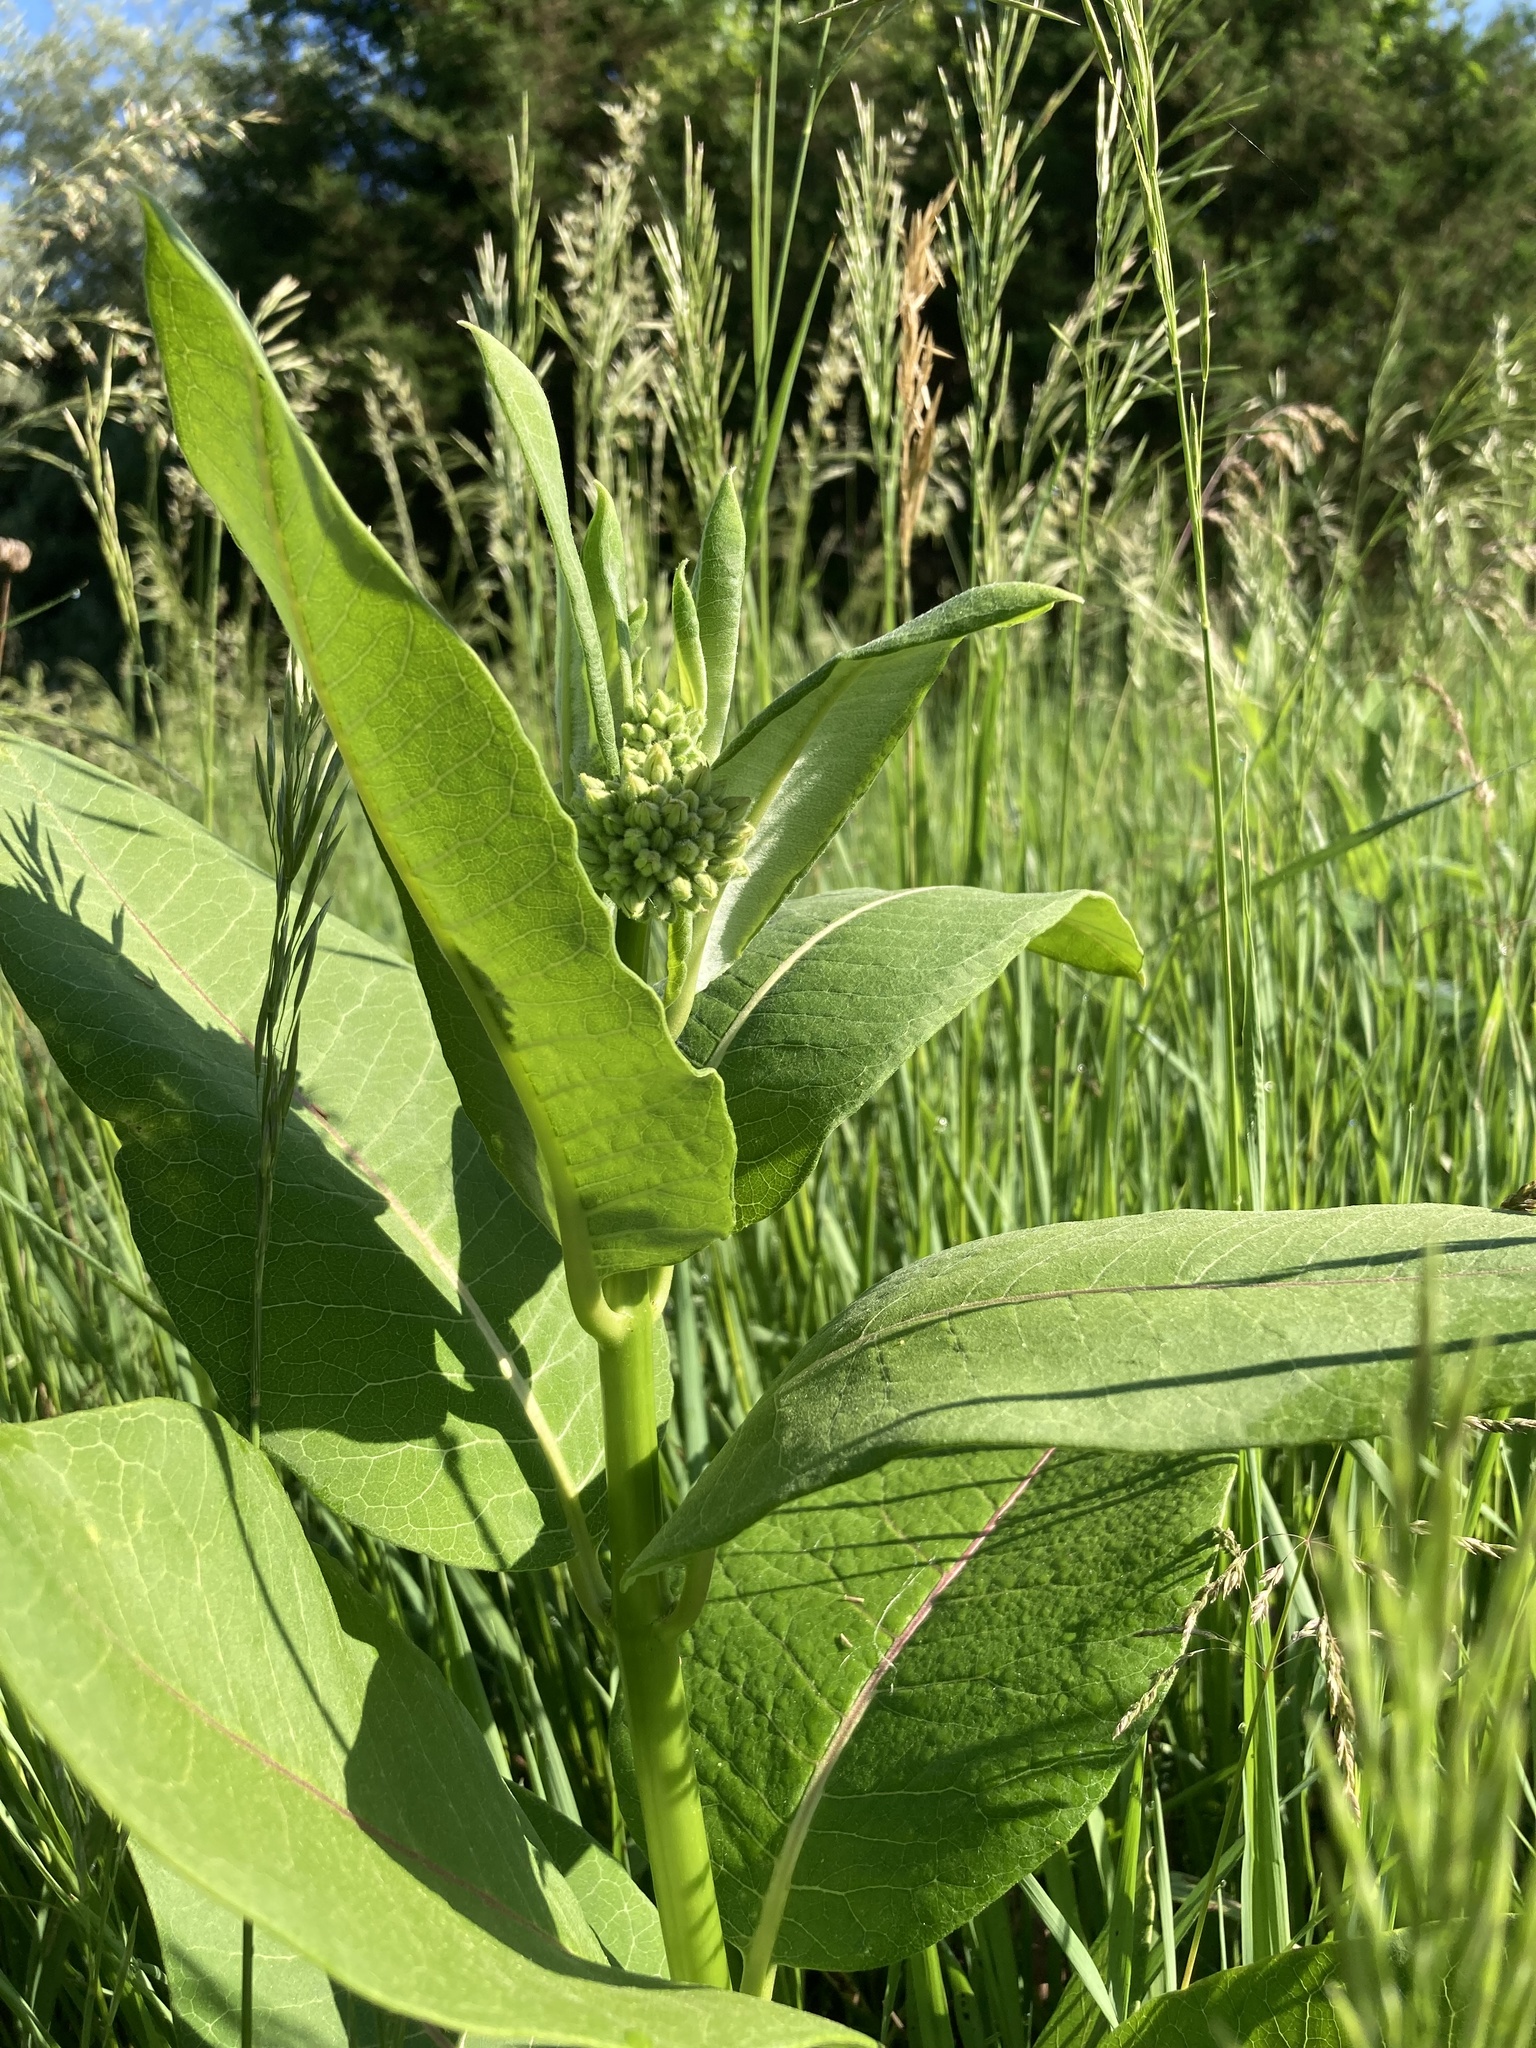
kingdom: Plantae
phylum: Tracheophyta
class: Magnoliopsida
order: Gentianales
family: Apocynaceae
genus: Asclepias
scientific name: Asclepias syriaca
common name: Common milkweed
